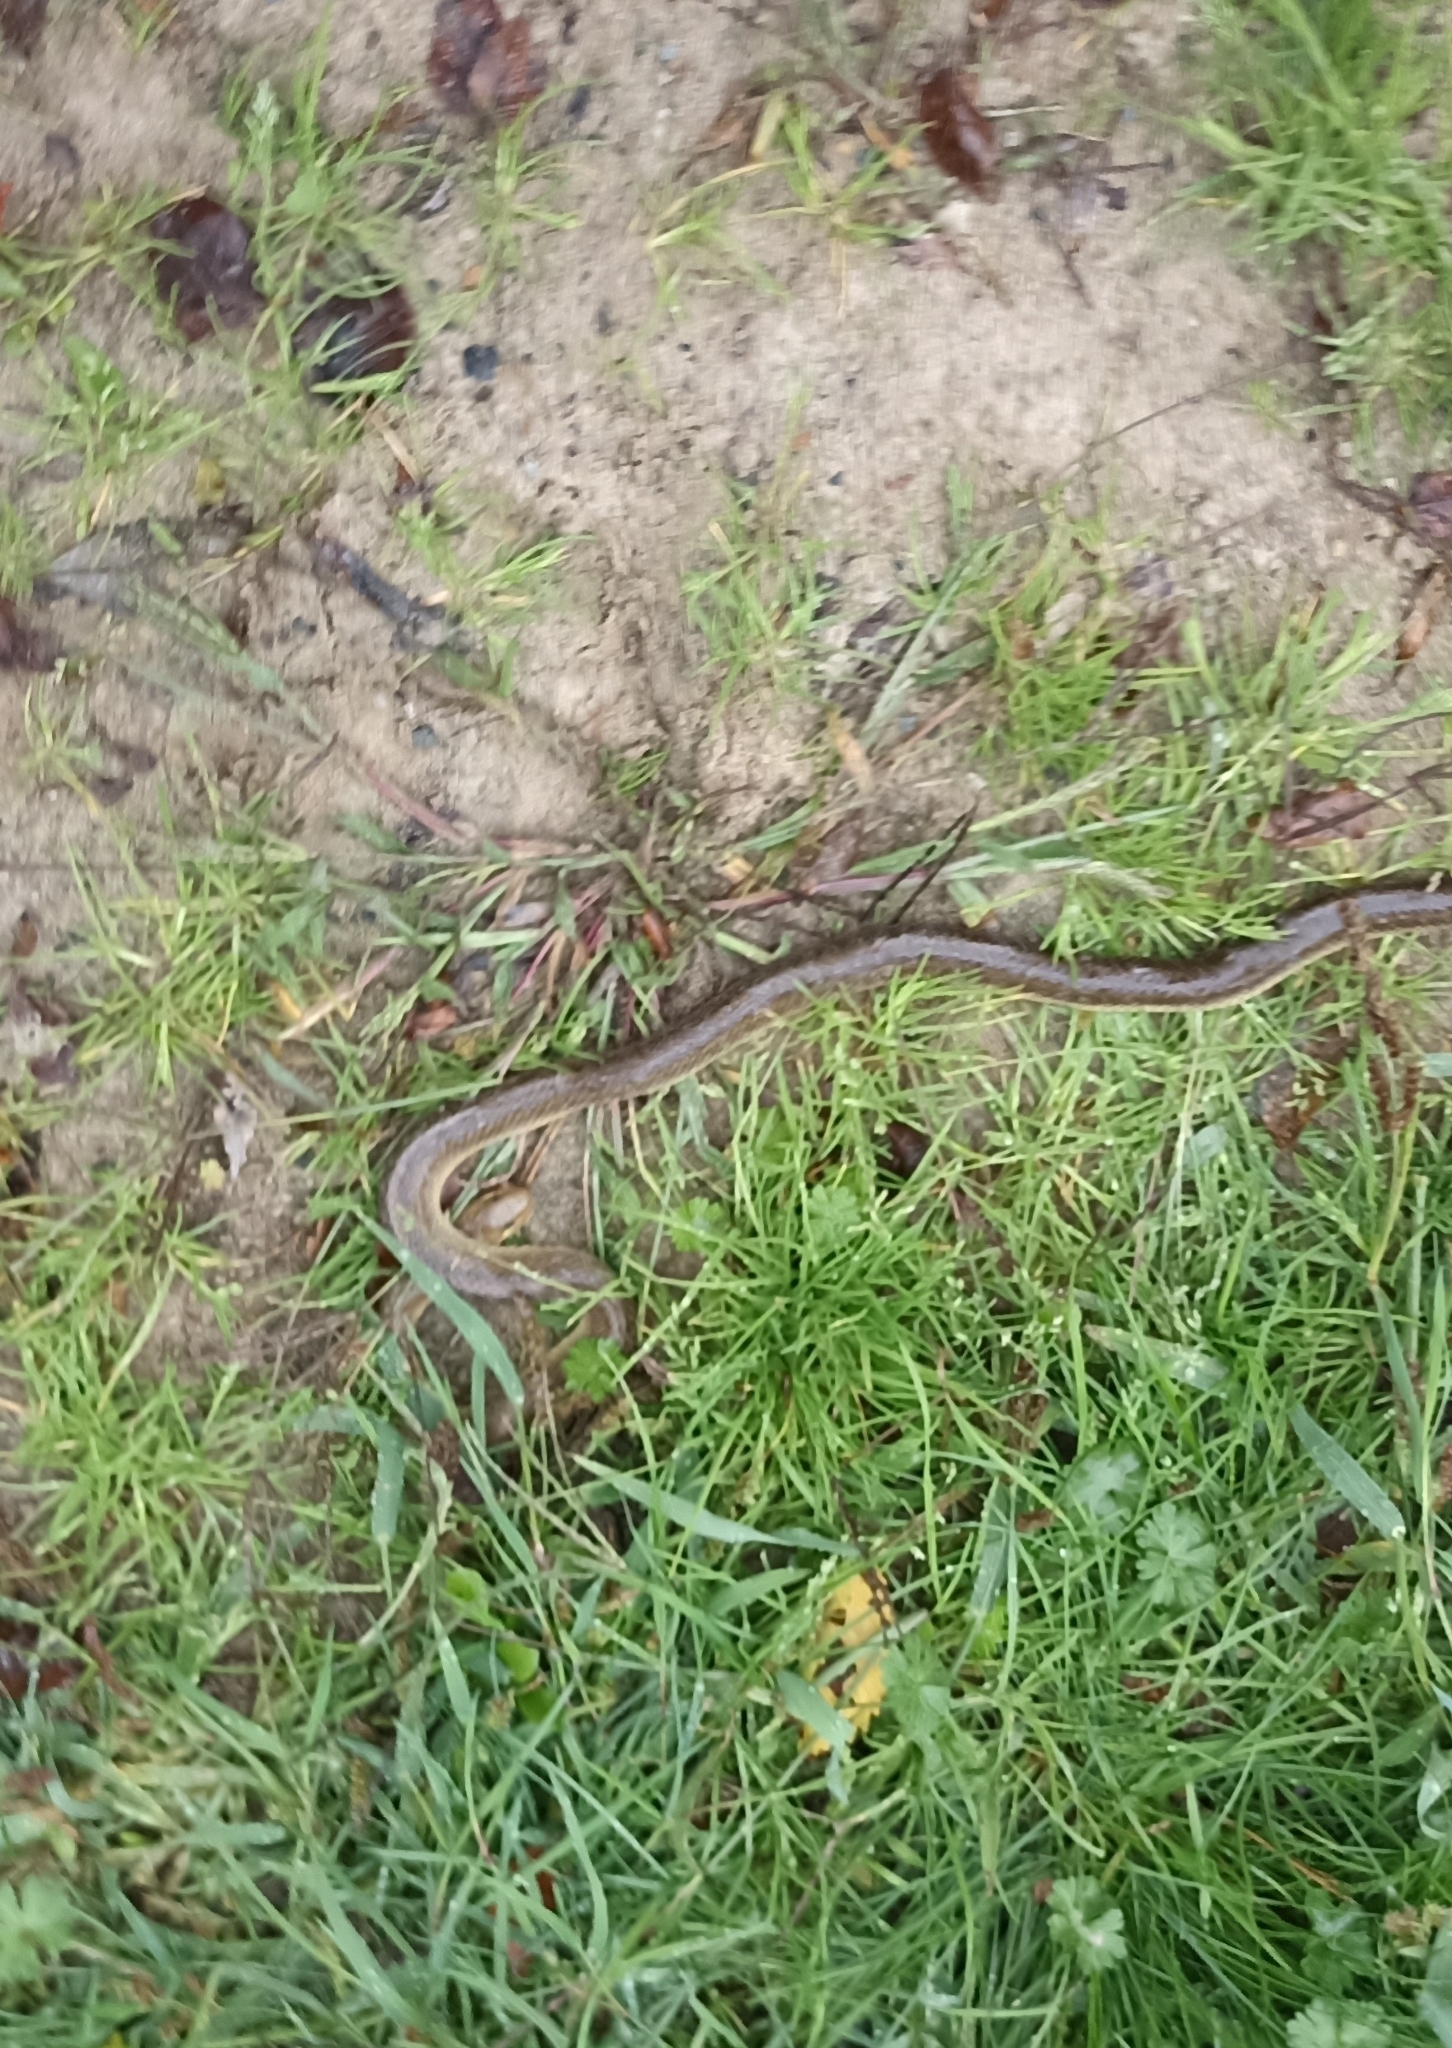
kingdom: Animalia
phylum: Chordata
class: Squamata
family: Colubridae
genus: Zamenis
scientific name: Zamenis longissimus
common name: Aesculapean snake
